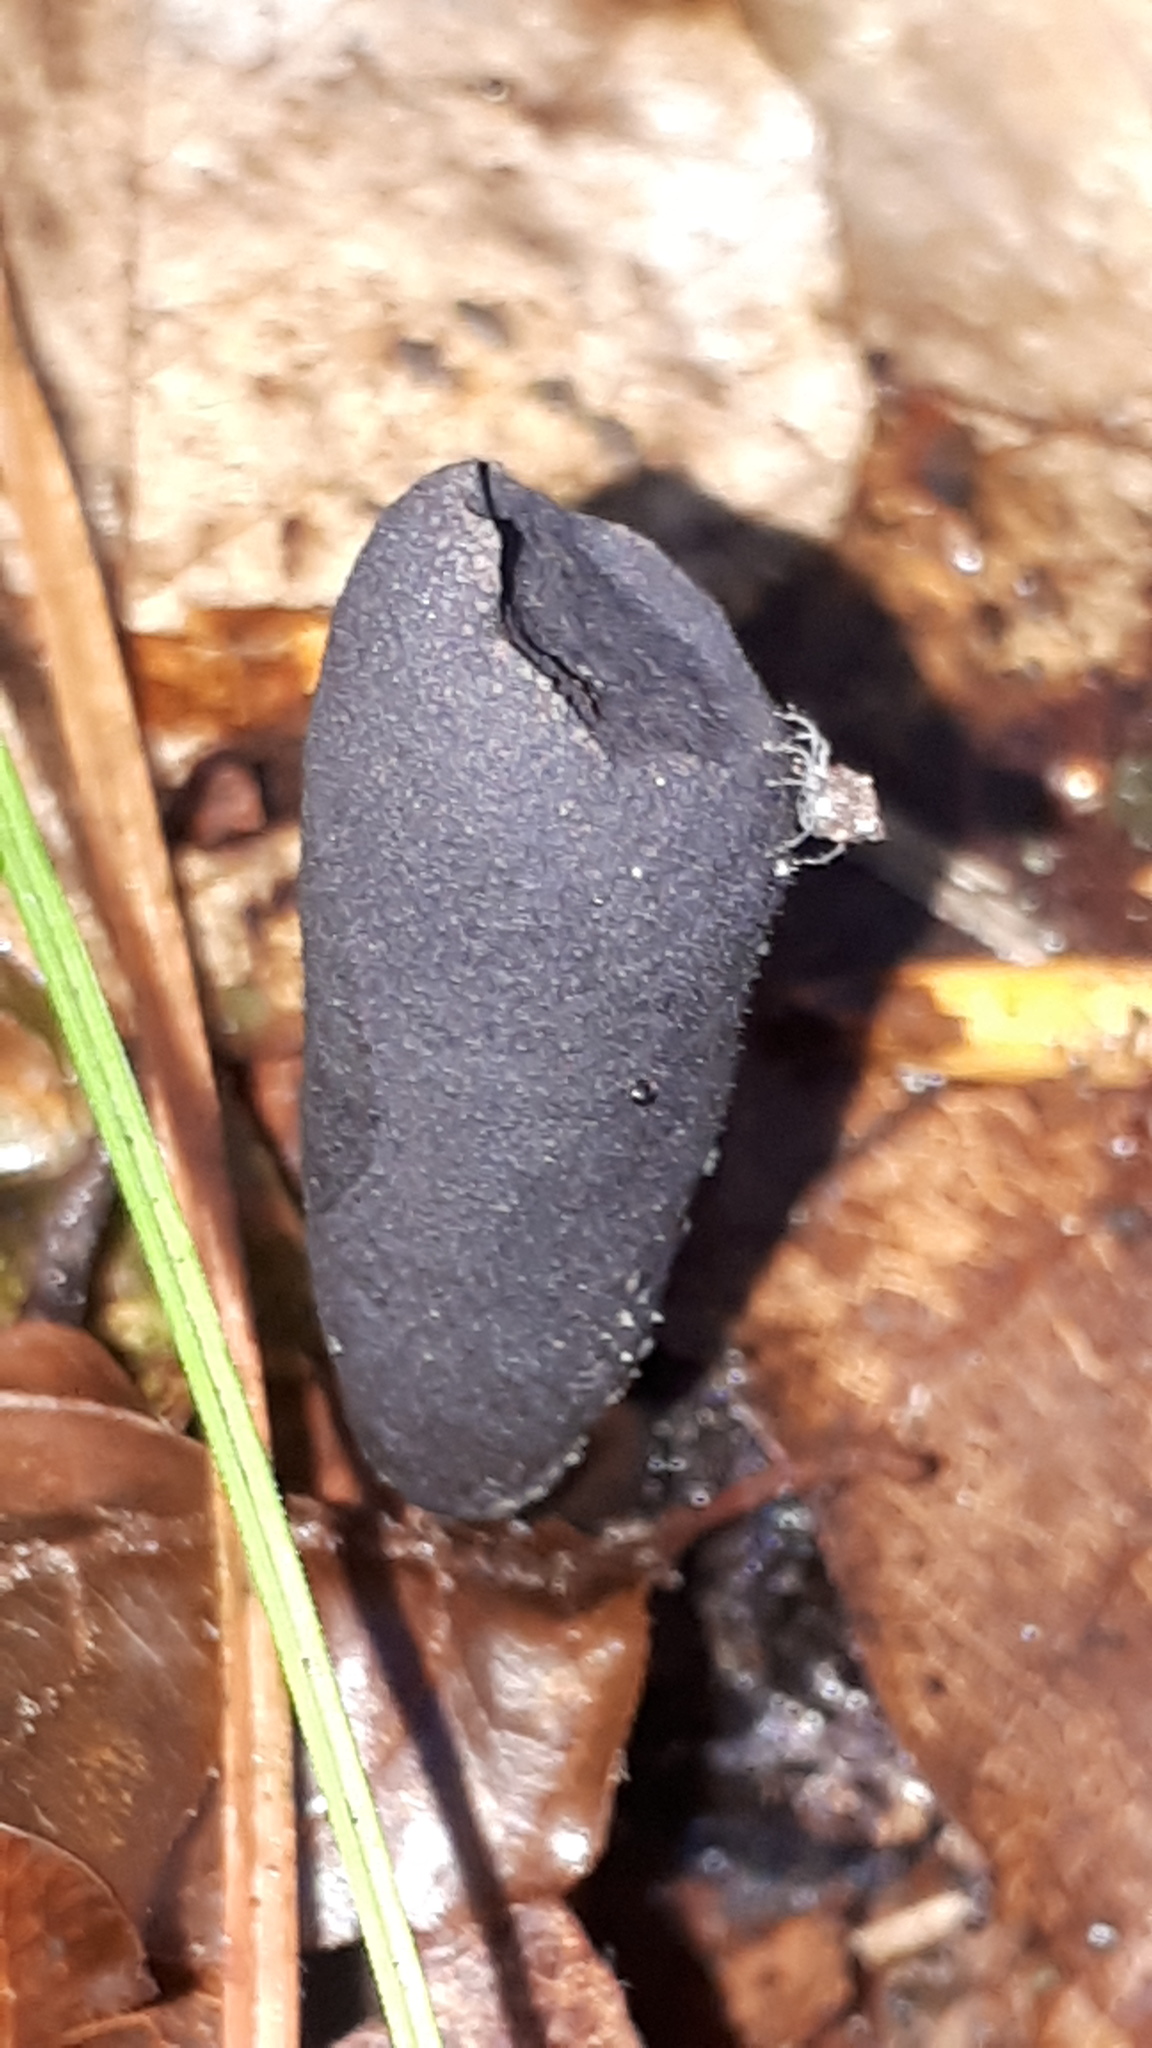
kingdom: Fungi
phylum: Ascomycota
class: Sordariomycetes
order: Xylariales
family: Xylariaceae
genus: Xylaria
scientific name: Xylaria longipes
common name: Dead moll's fingers
